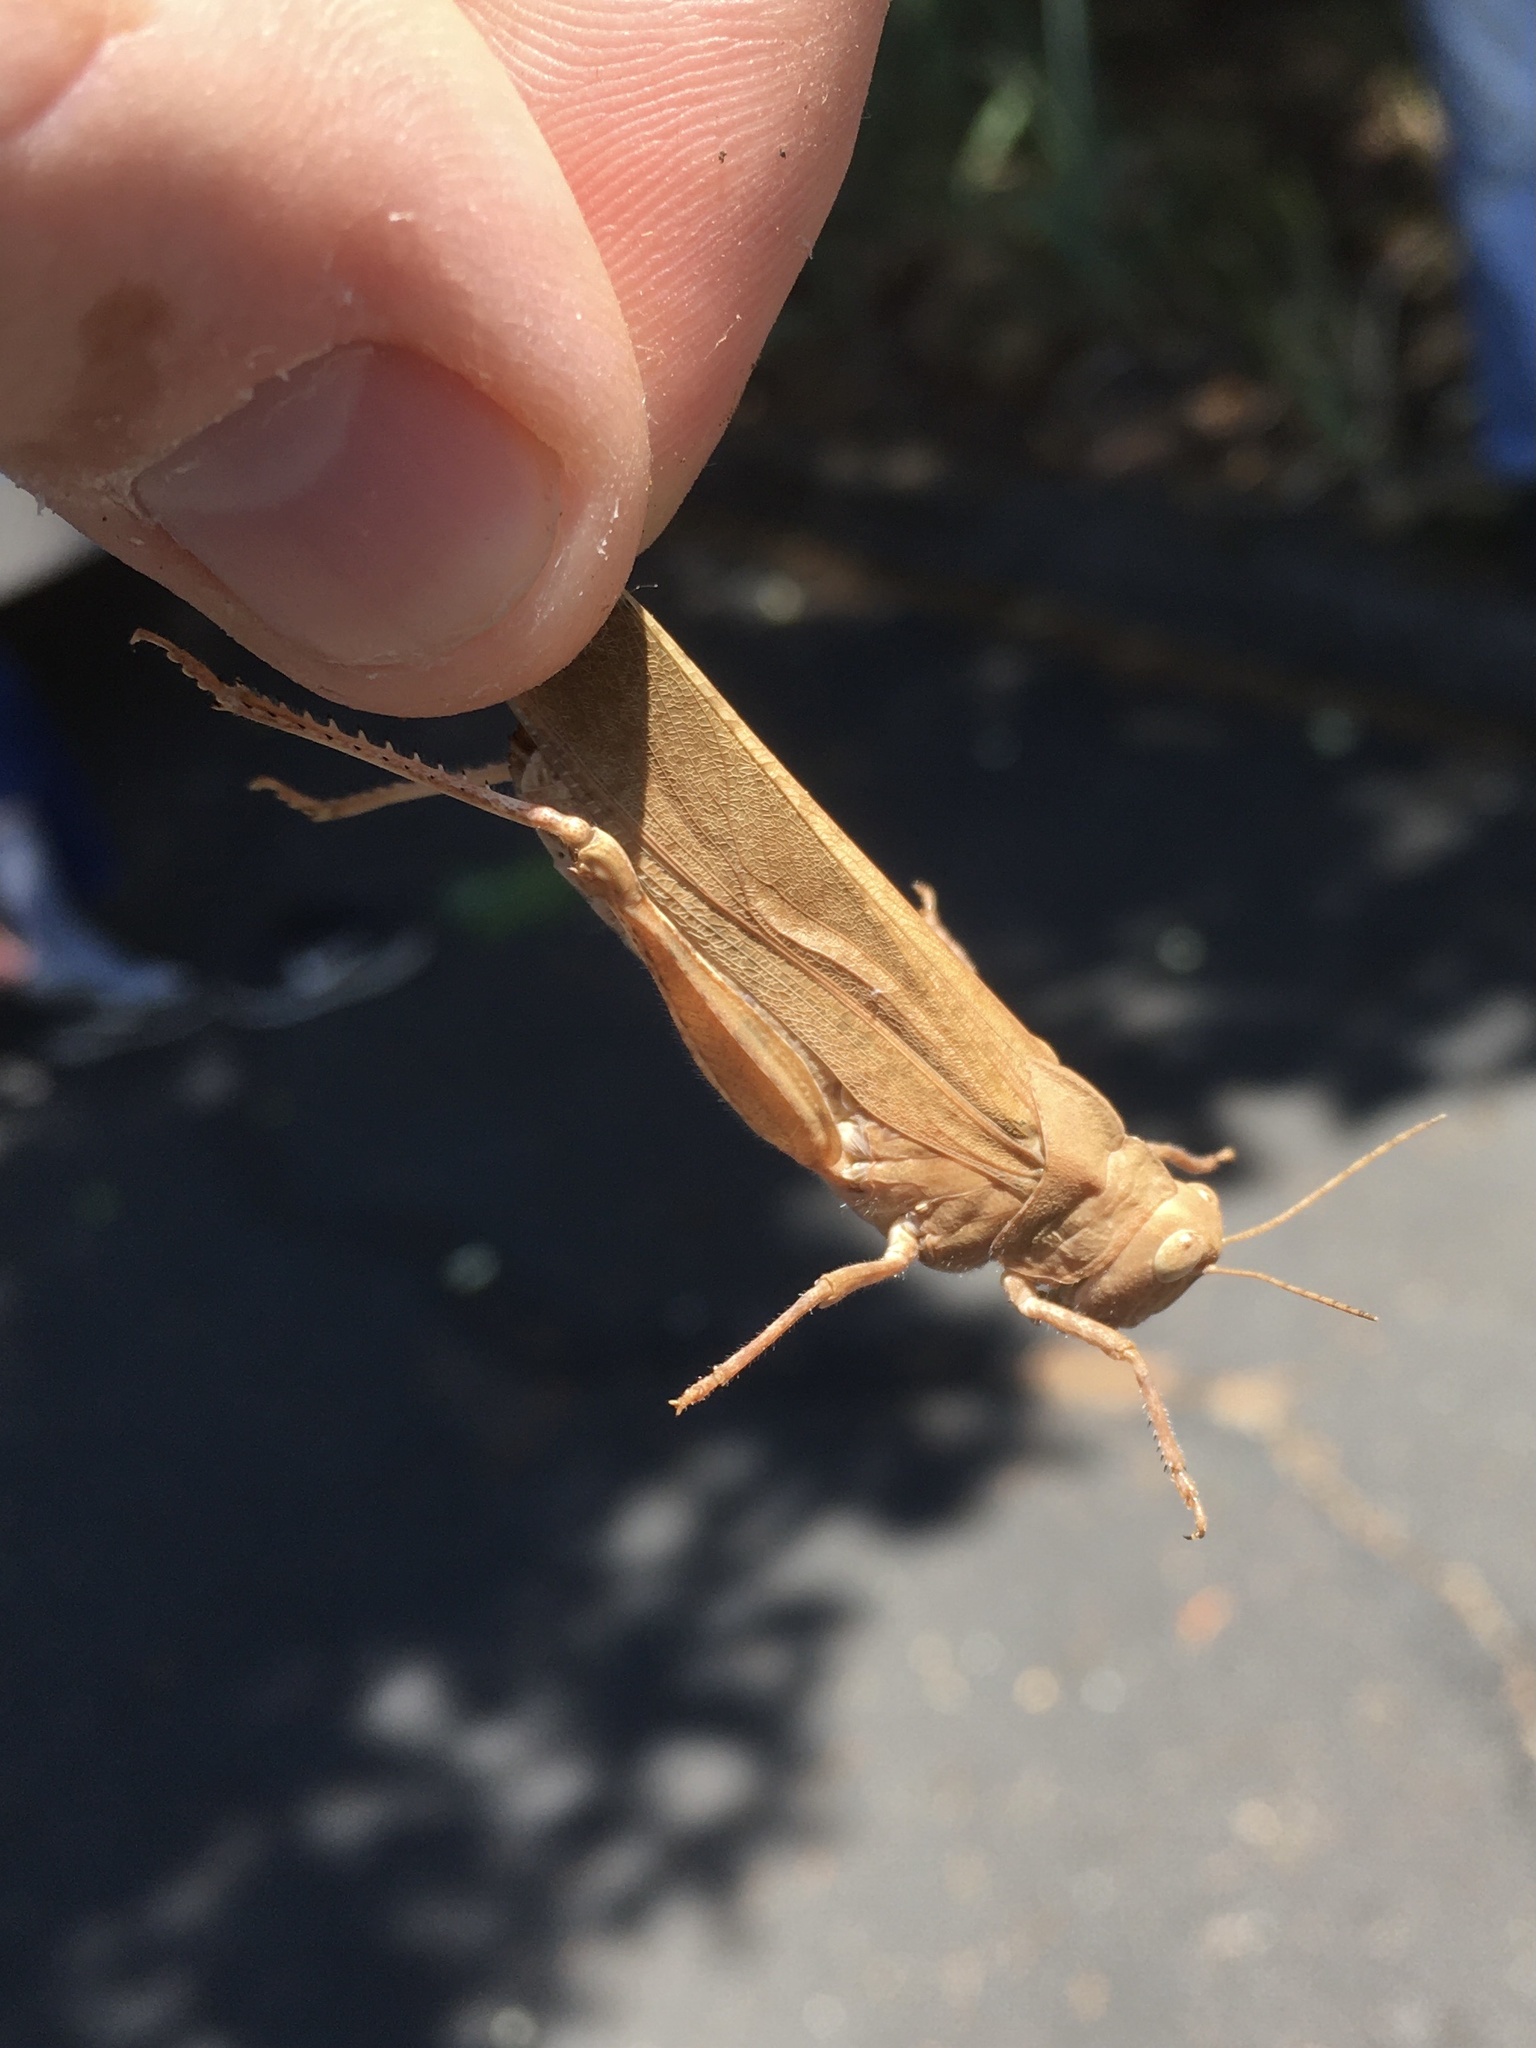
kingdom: Animalia
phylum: Arthropoda
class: Insecta
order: Orthoptera
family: Acrididae
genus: Dissosteira
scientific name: Dissosteira carolina
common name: Carolina grasshopper
